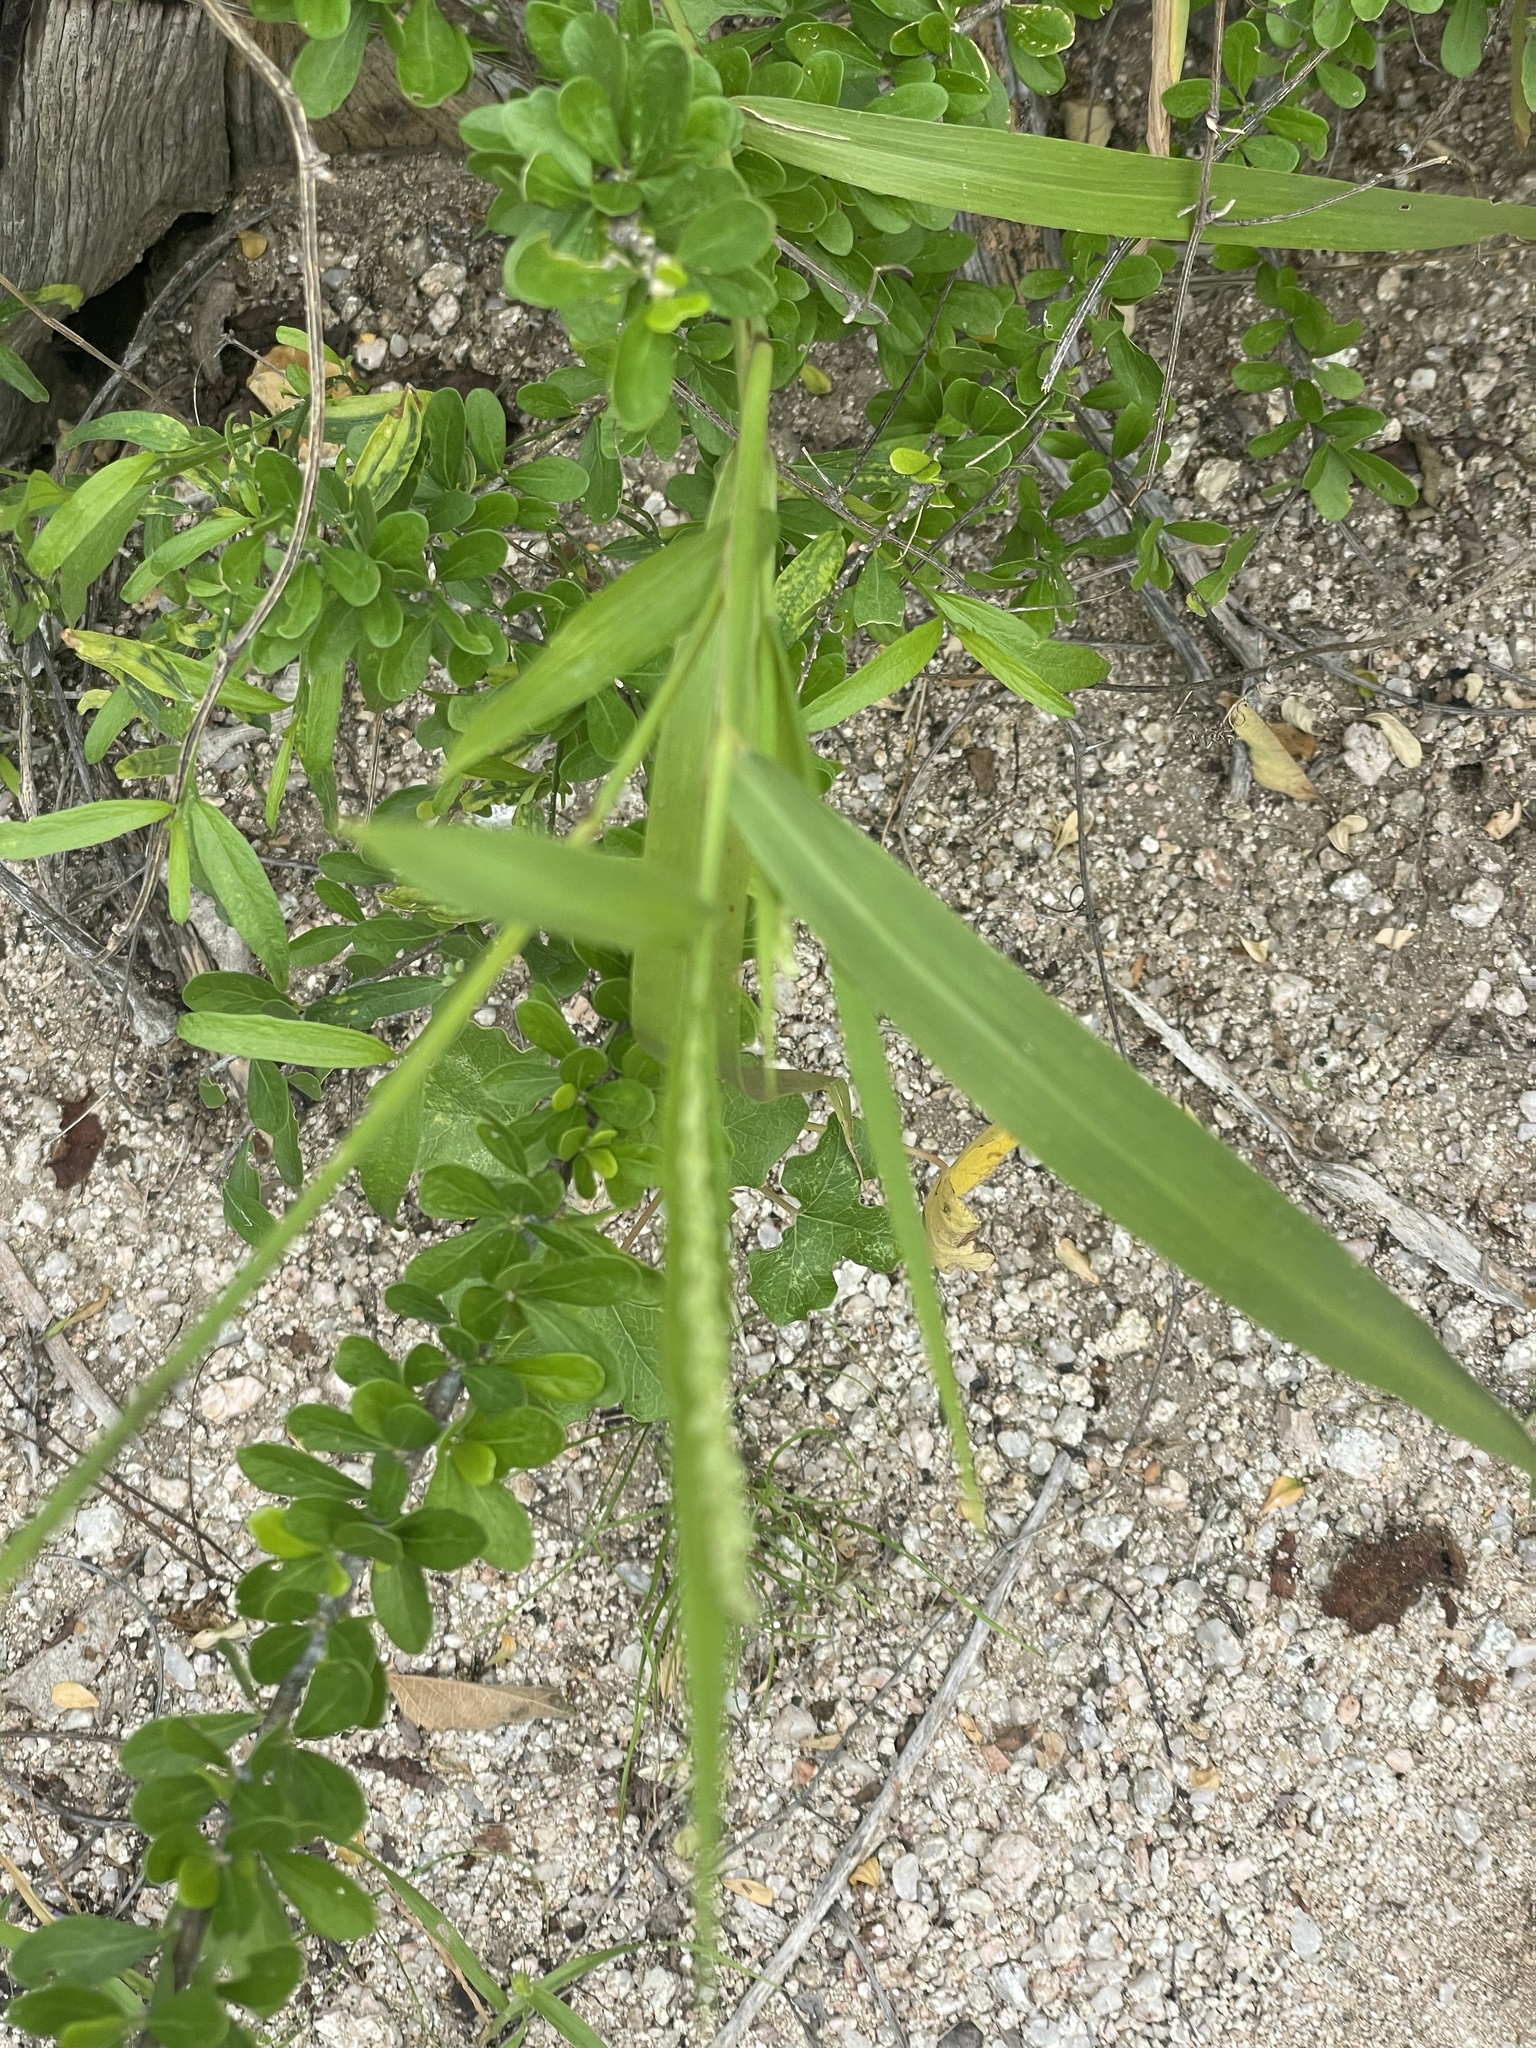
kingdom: Plantae
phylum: Tracheophyta
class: Liliopsida
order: Poales
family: Poaceae
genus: Setaria
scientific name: Setaria palmeri
